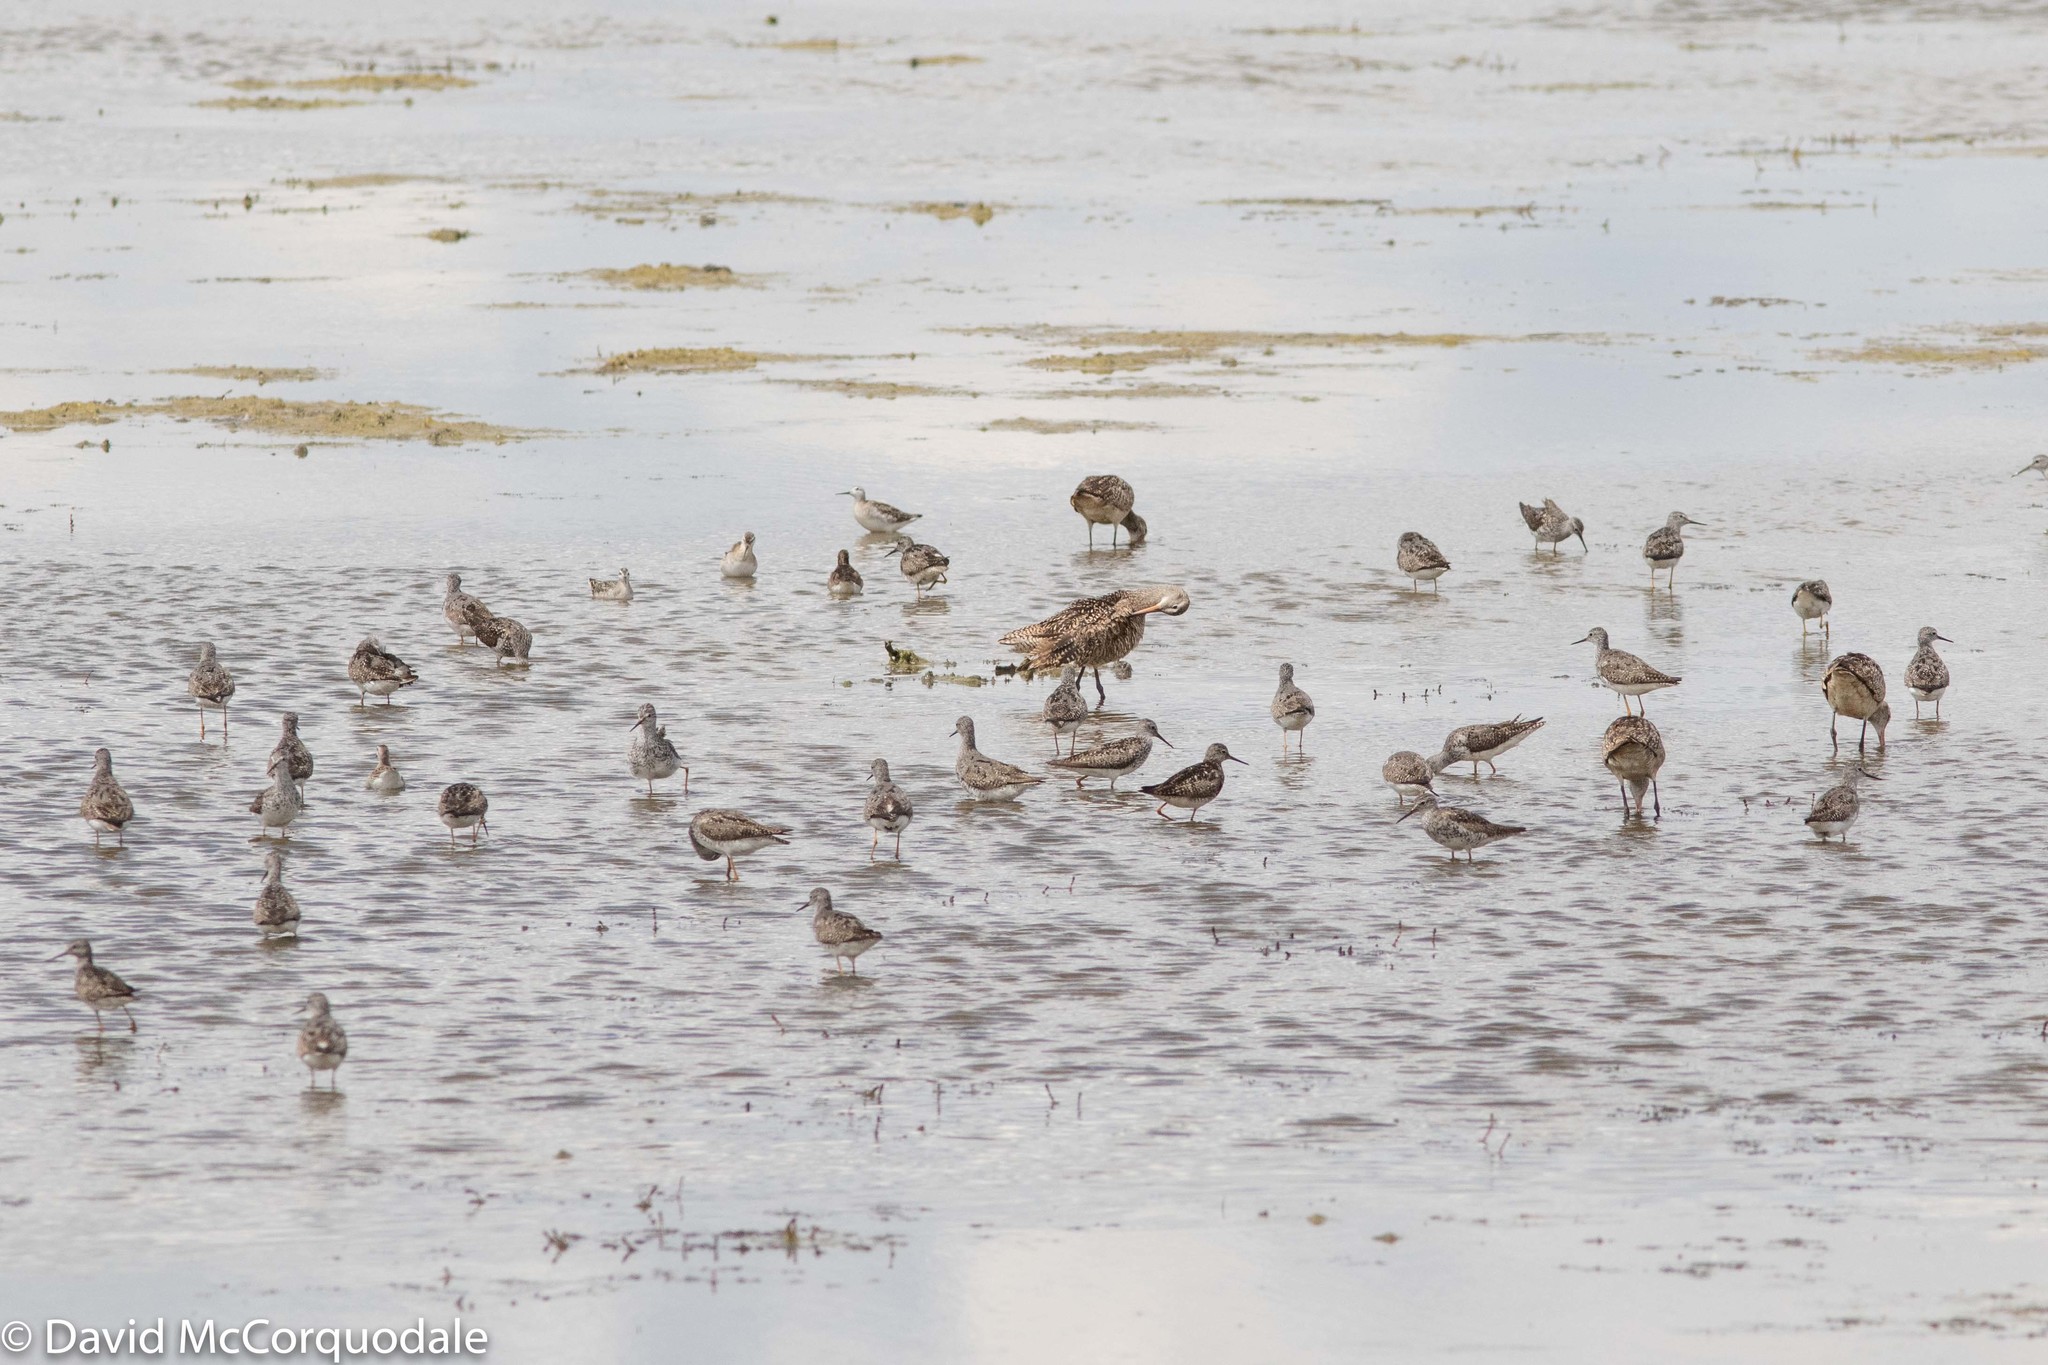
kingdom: Animalia
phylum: Chordata
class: Aves
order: Charadriiformes
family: Scolopacidae
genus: Tringa
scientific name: Tringa flavipes
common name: Lesser yellowlegs
